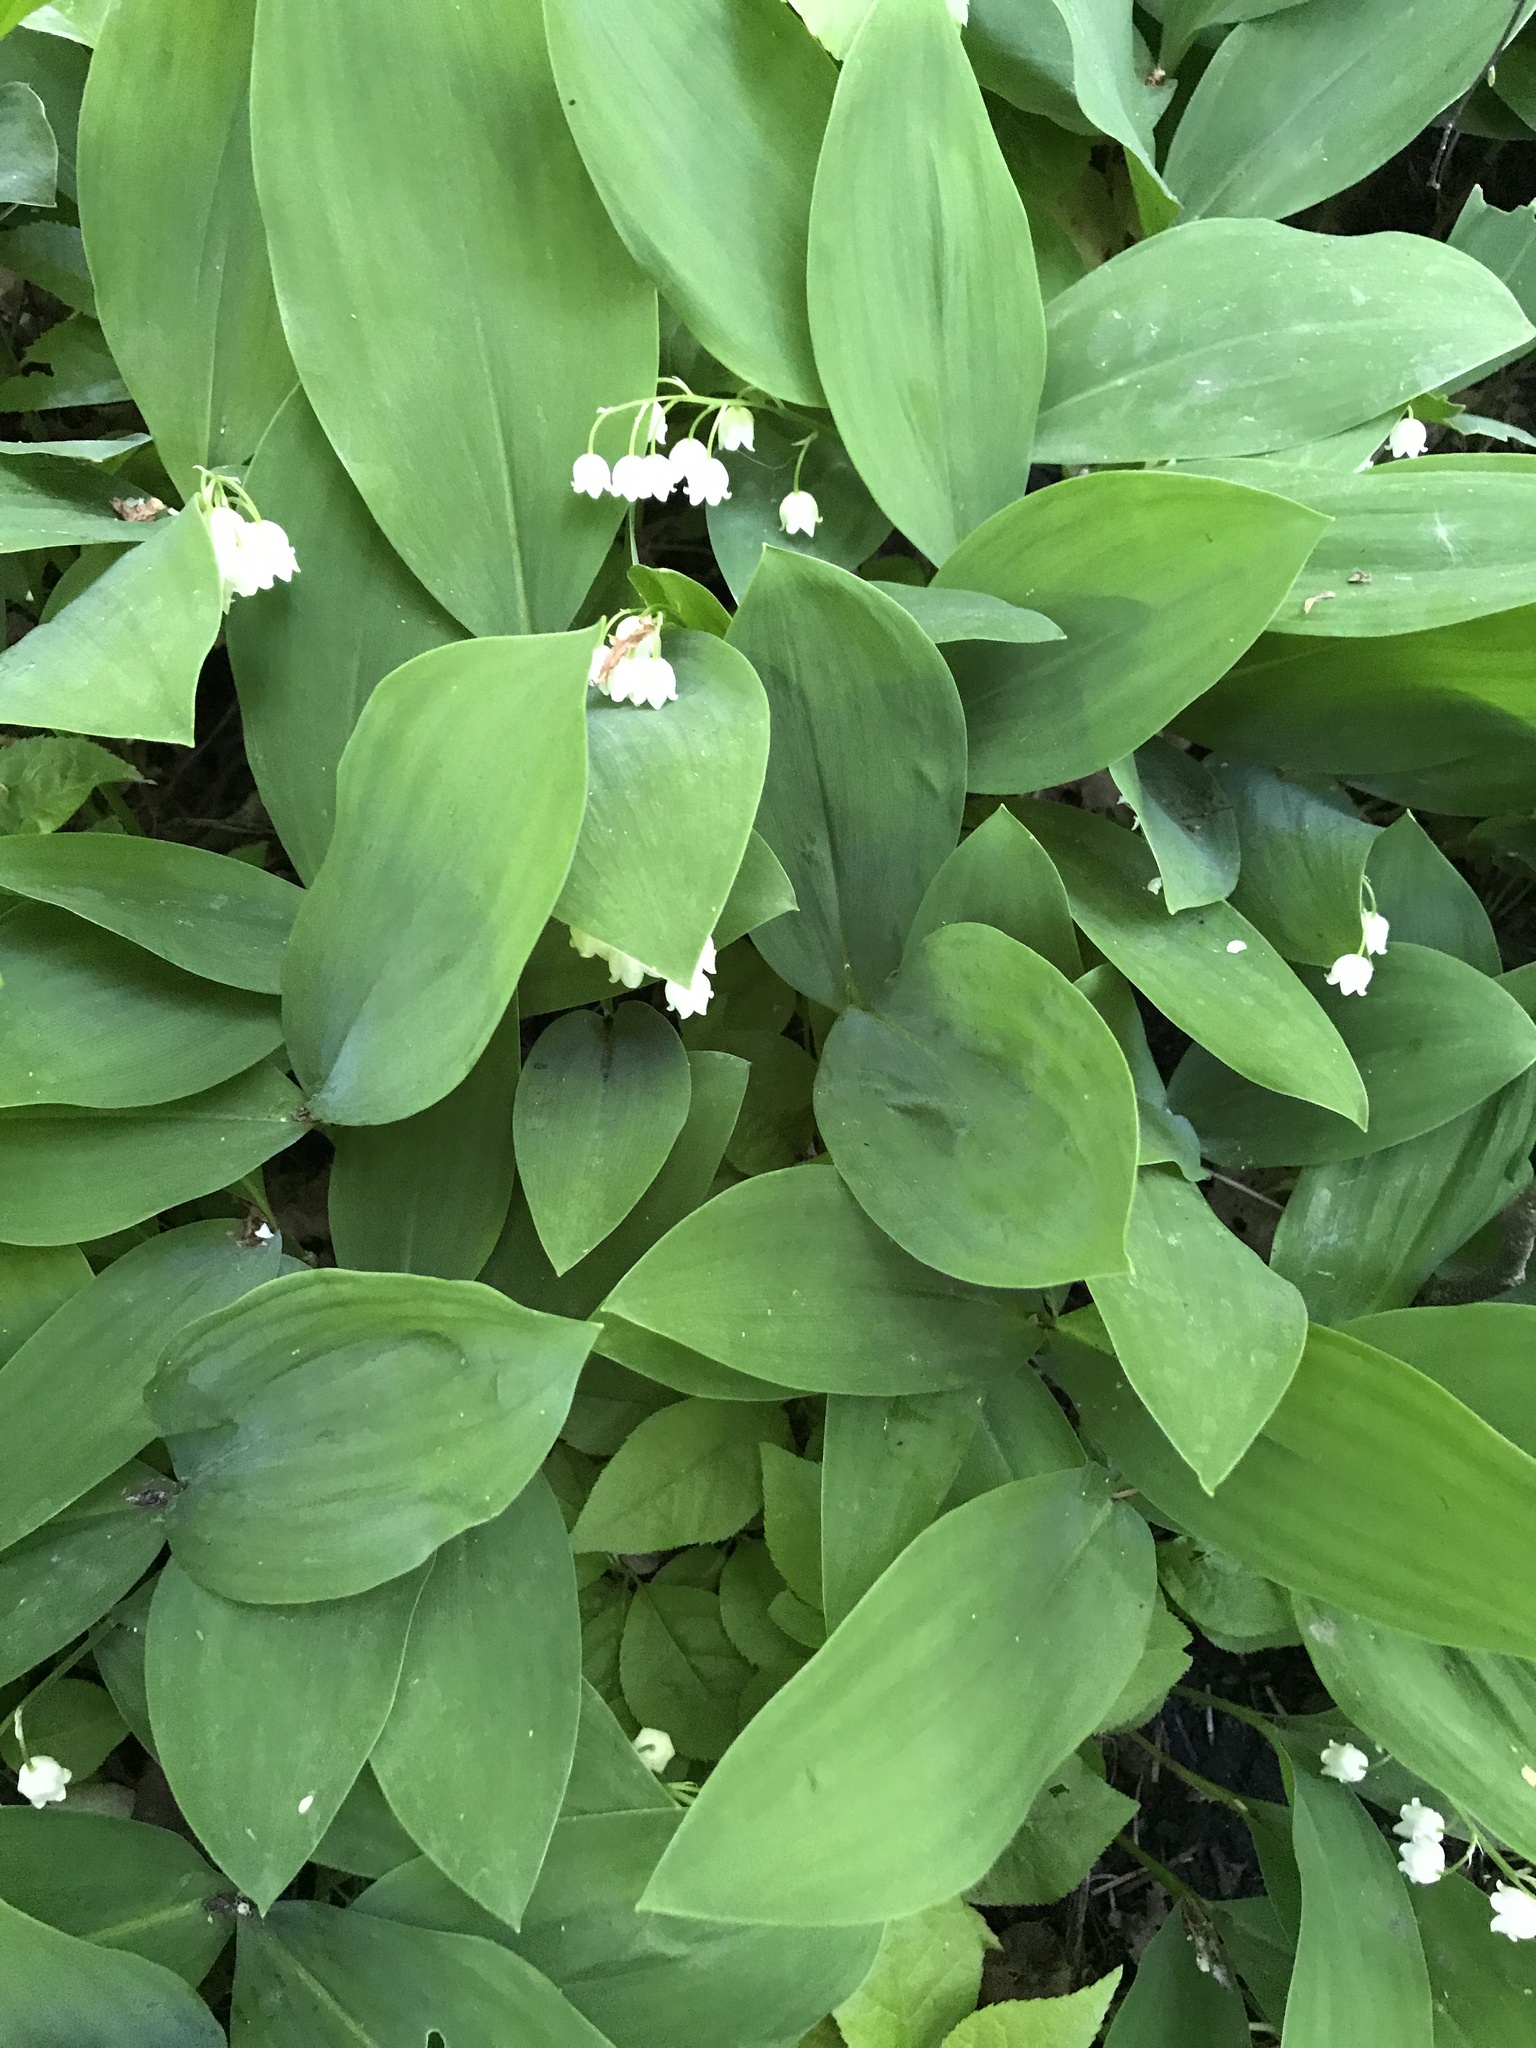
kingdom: Plantae
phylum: Tracheophyta
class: Liliopsida
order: Asparagales
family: Asparagaceae
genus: Convallaria
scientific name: Convallaria majalis
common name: Lily-of-the-valley
